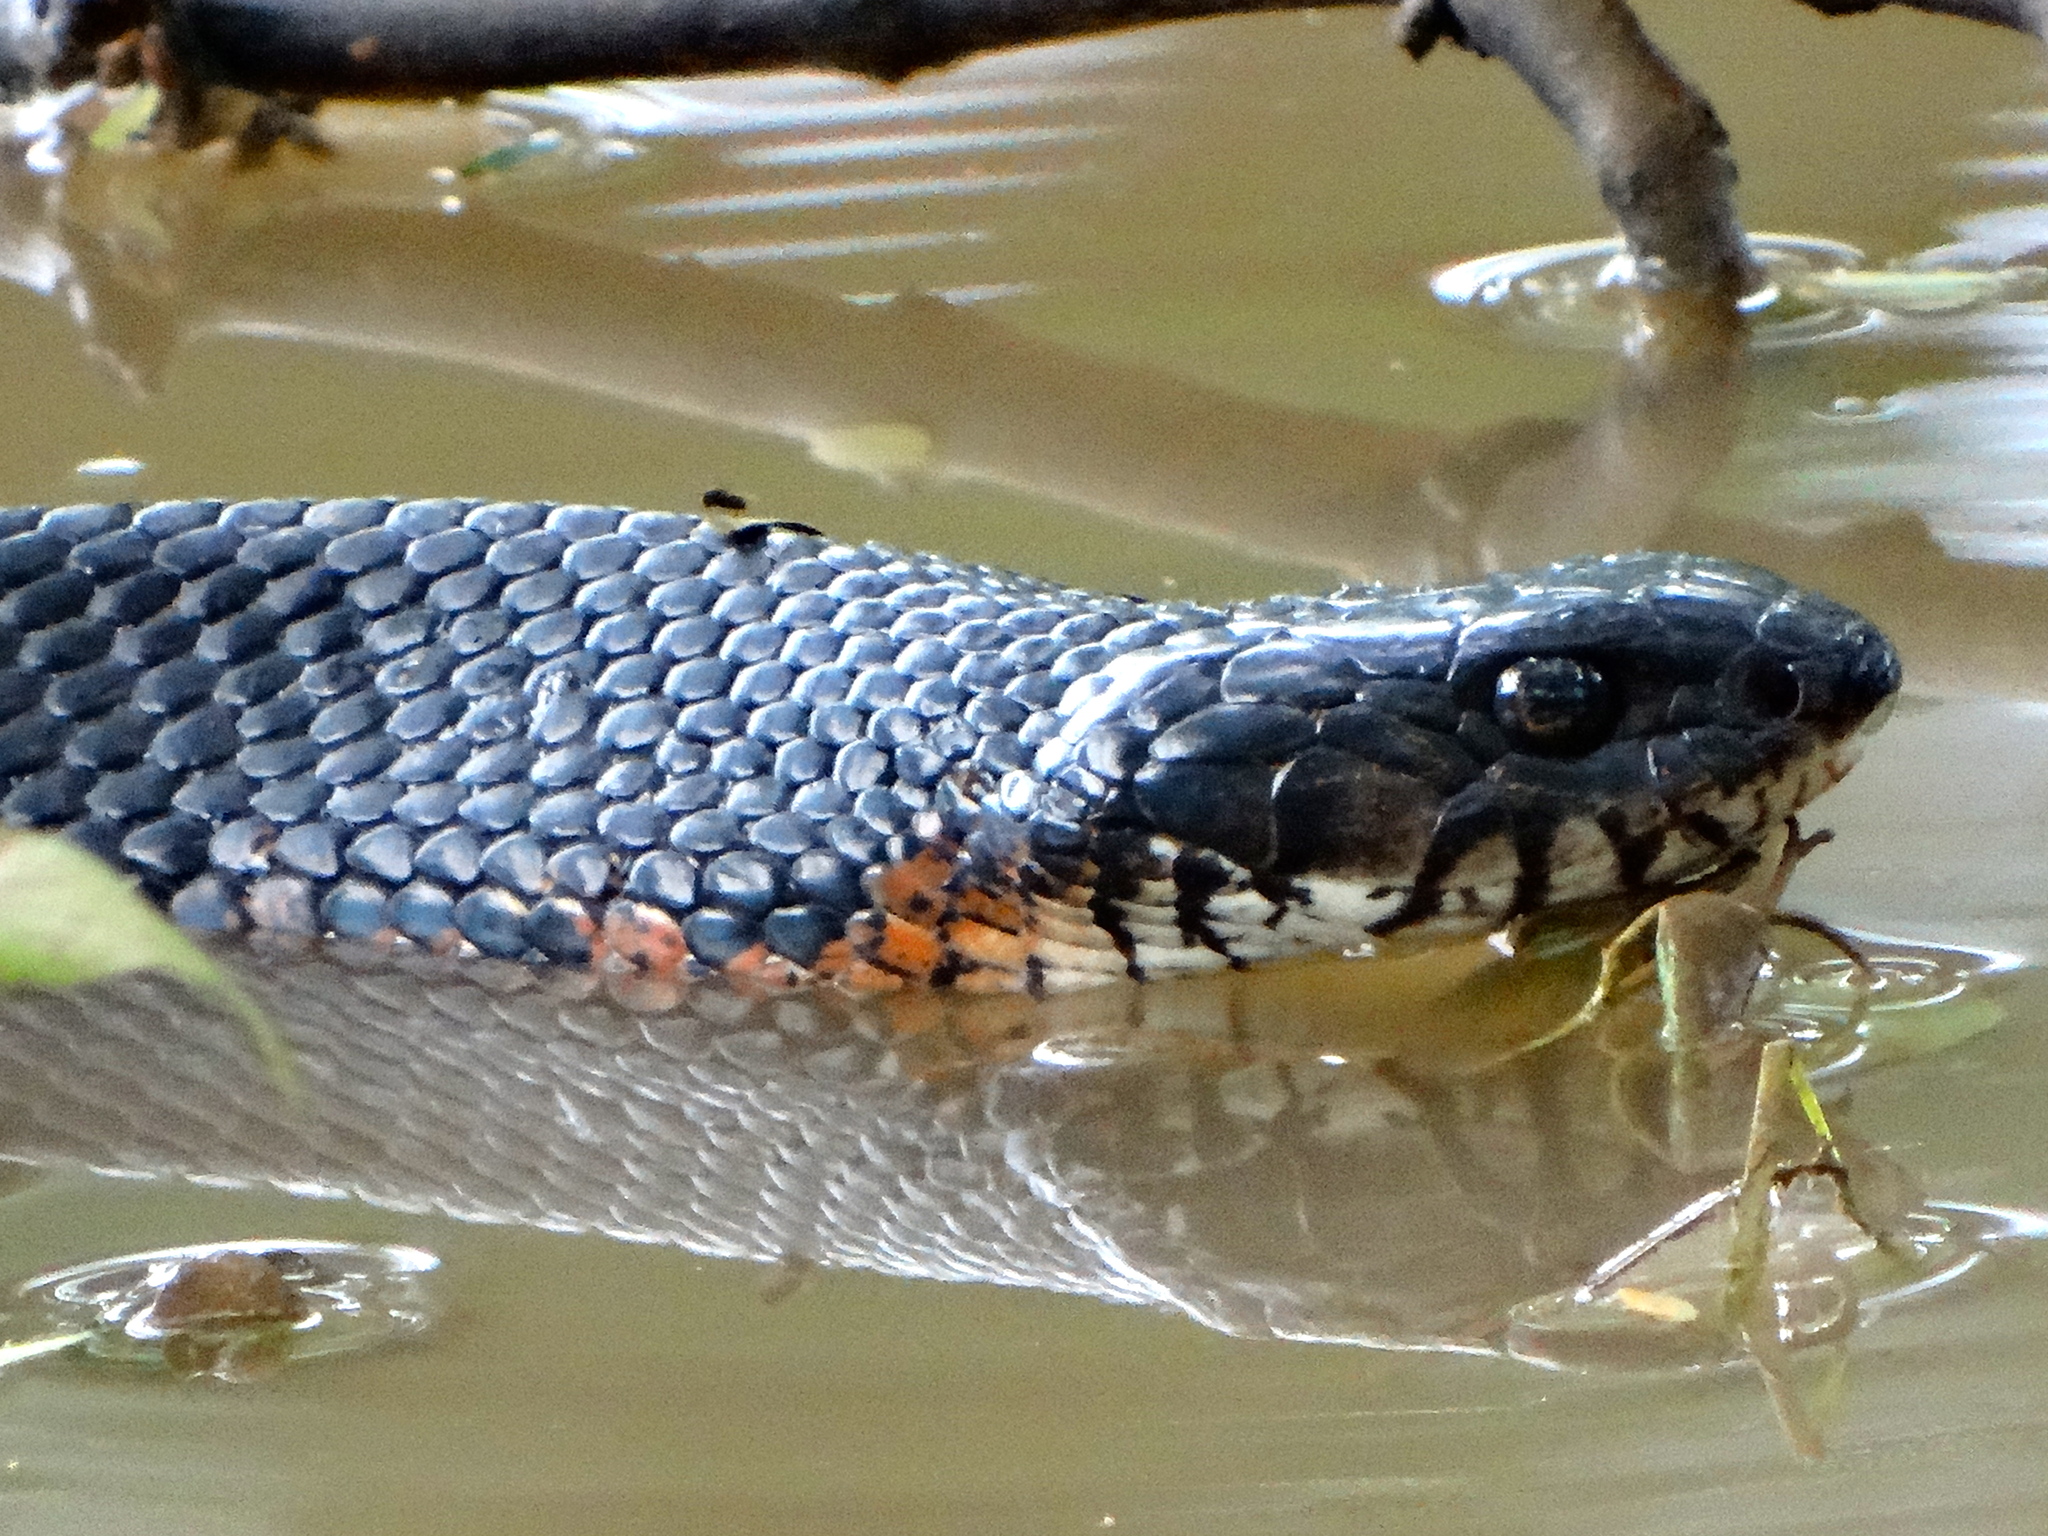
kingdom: Animalia
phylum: Chordata
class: Squamata
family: Colubridae
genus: Drymarchon
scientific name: Drymarchon melanurus
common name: Central american indigo snake
